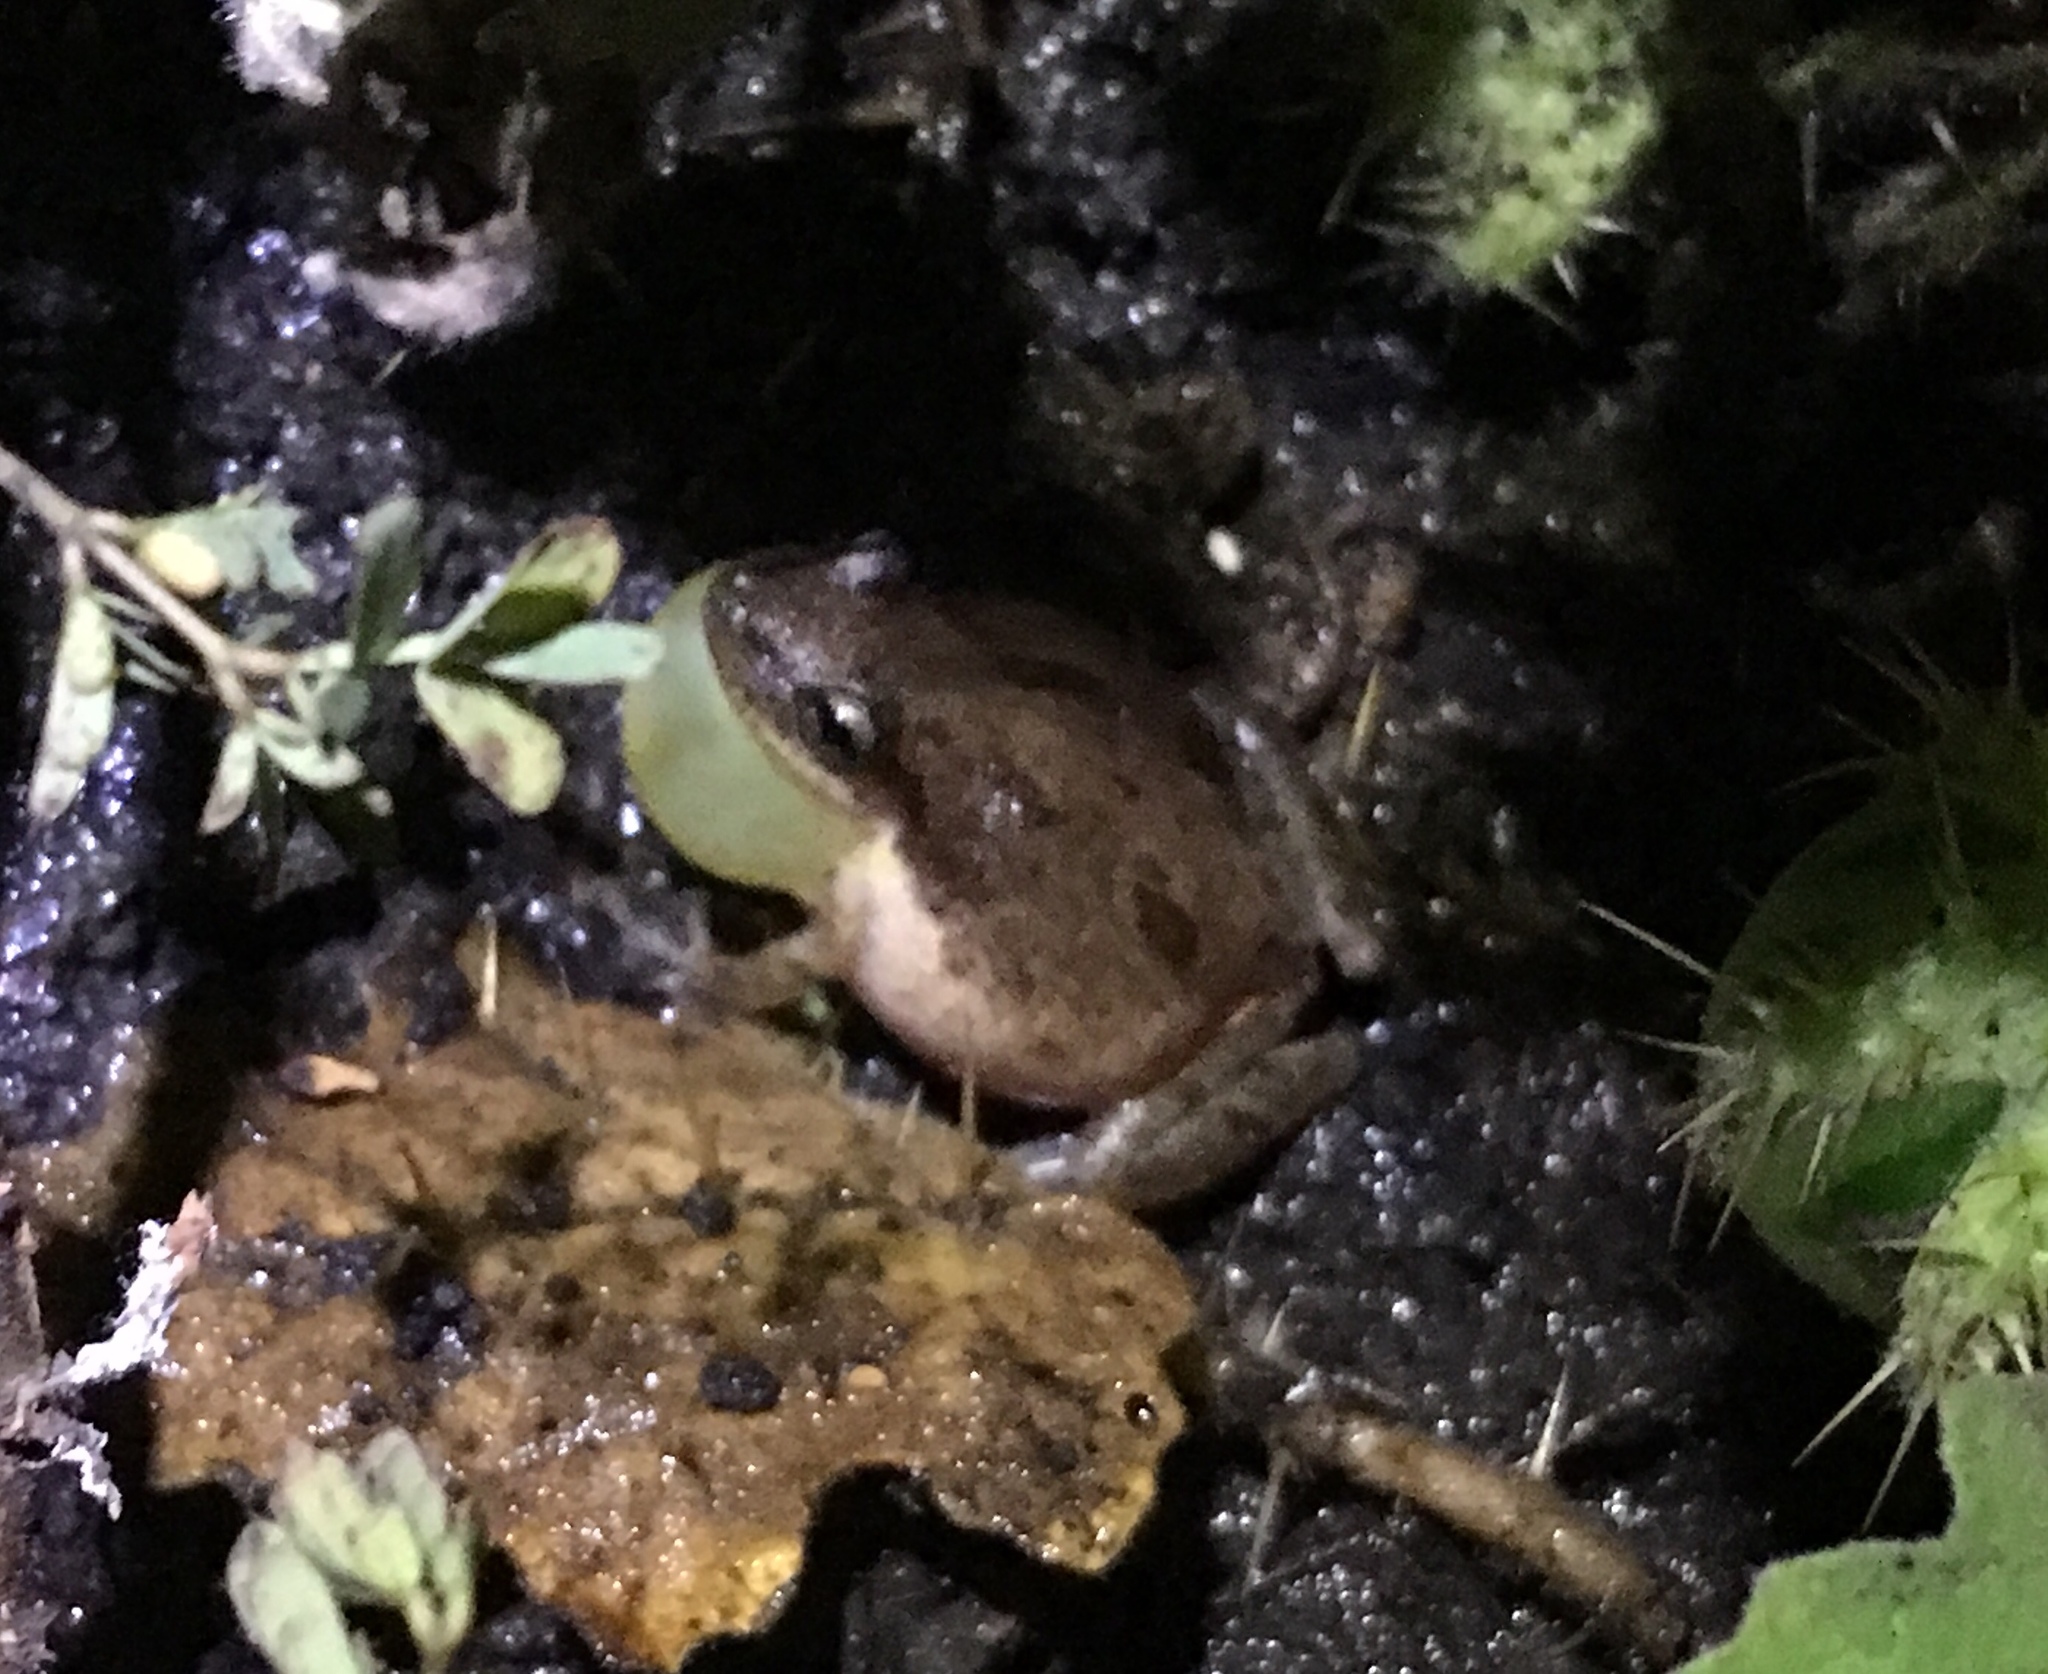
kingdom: Animalia
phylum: Chordata
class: Amphibia
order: Anura
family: Hylidae
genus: Scinax
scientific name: Scinax staufferi
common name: Stauffer's long-nosed treefrog
